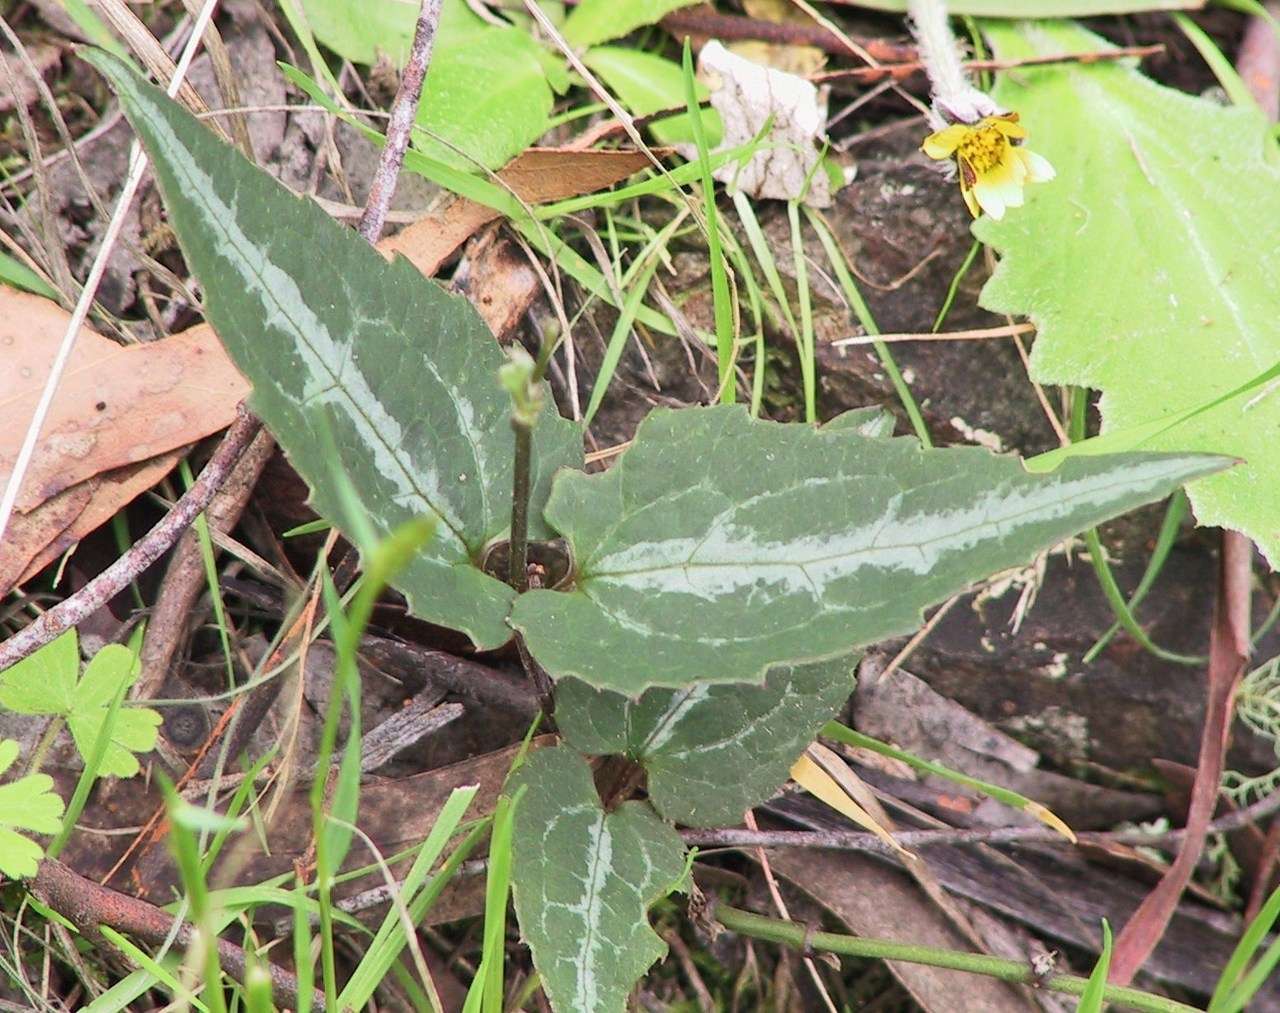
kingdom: Plantae
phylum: Tracheophyta
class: Magnoliopsida
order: Ranunculales
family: Ranunculaceae
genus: Clematis
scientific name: Clematis aristata
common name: Mountain clematis
